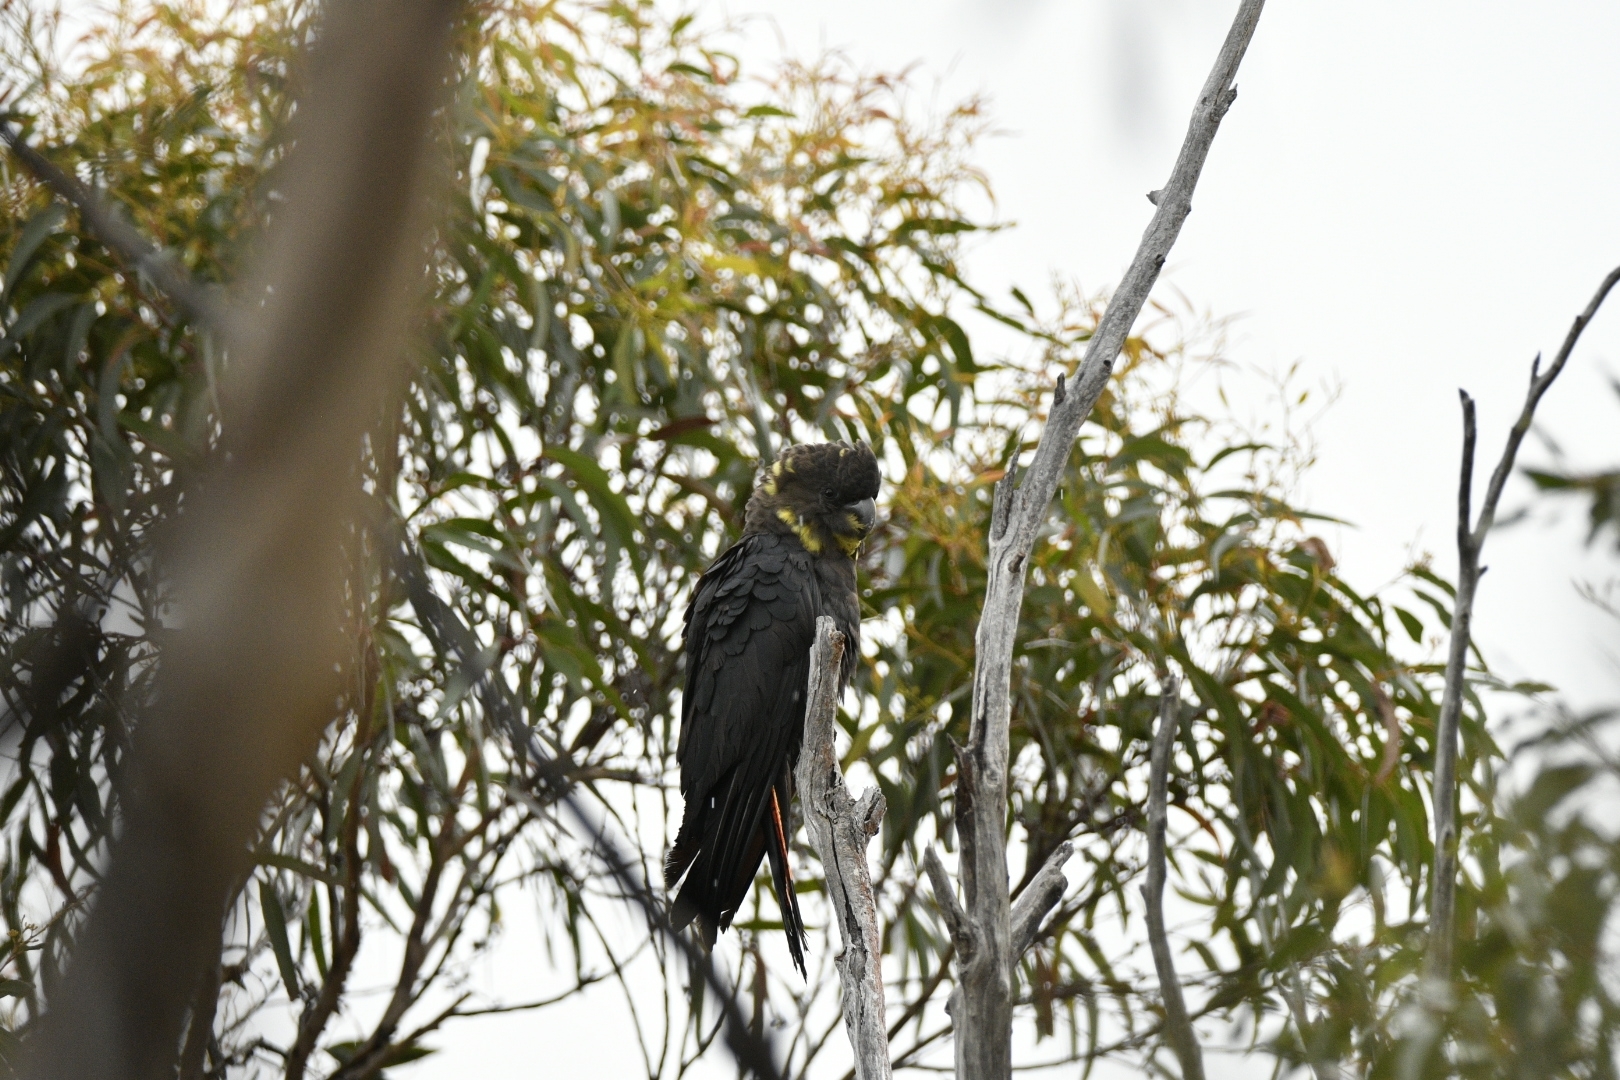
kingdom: Animalia
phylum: Chordata
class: Aves
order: Psittaciformes
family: Psittacidae
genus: Calyptorhynchus
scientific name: Calyptorhynchus lathami
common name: Glossy black cockatoo
